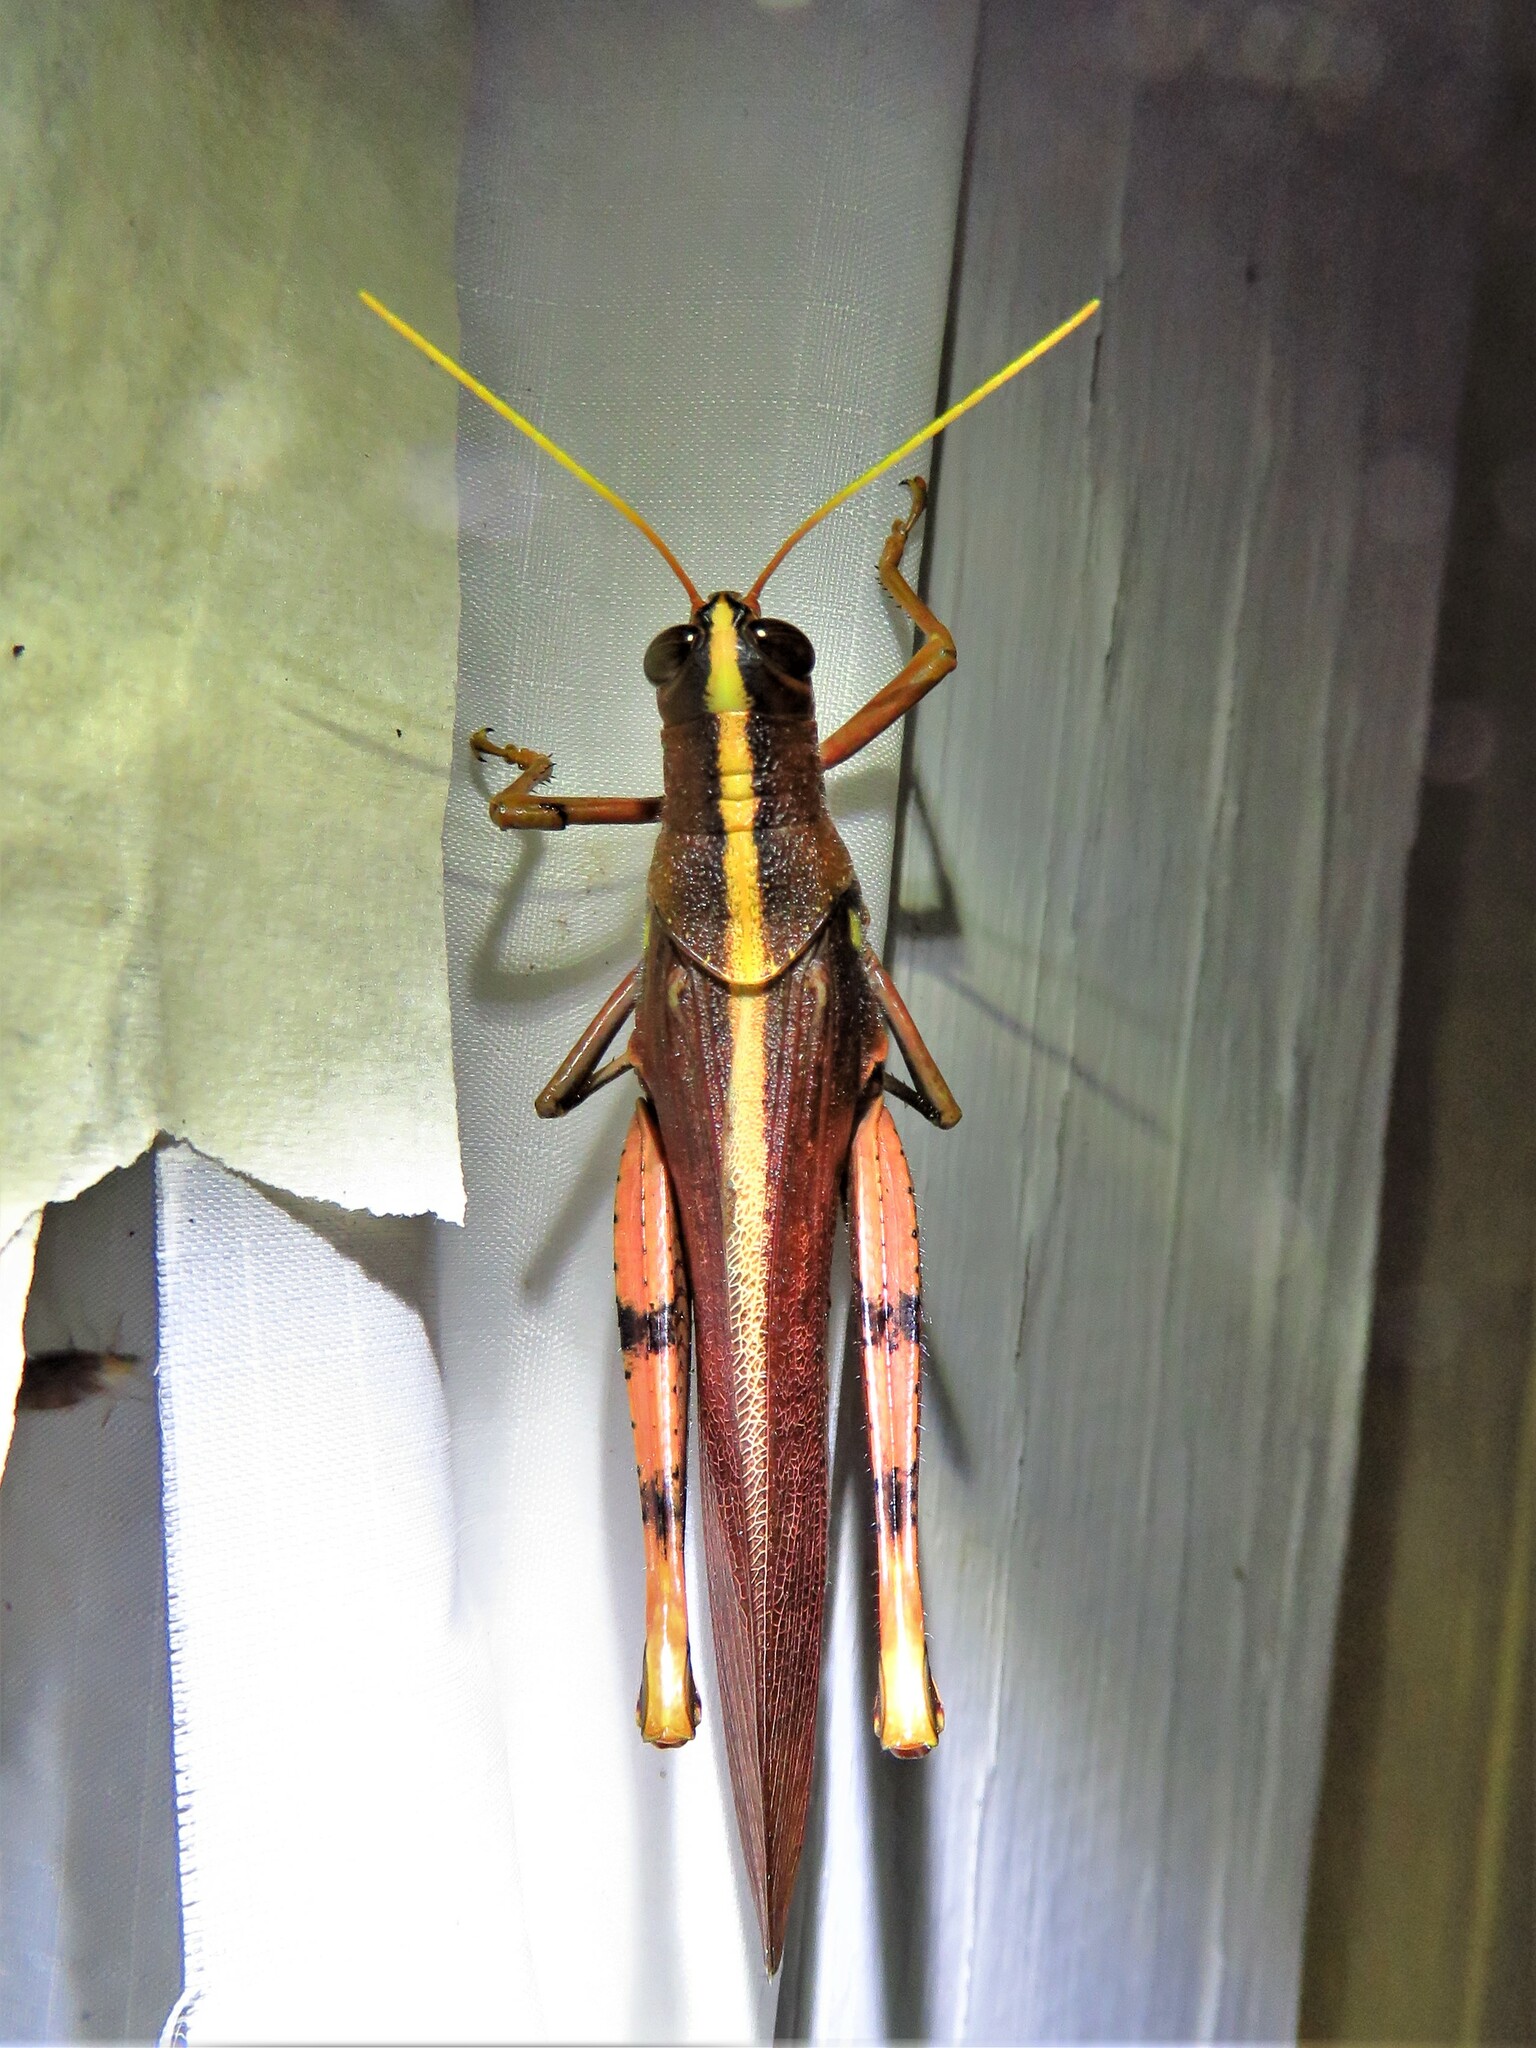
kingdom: Animalia
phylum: Arthropoda
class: Insecta
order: Orthoptera
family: Acrididae
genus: Schistocerca
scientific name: Schistocerca obscura
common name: Obscure bird grasshopper
